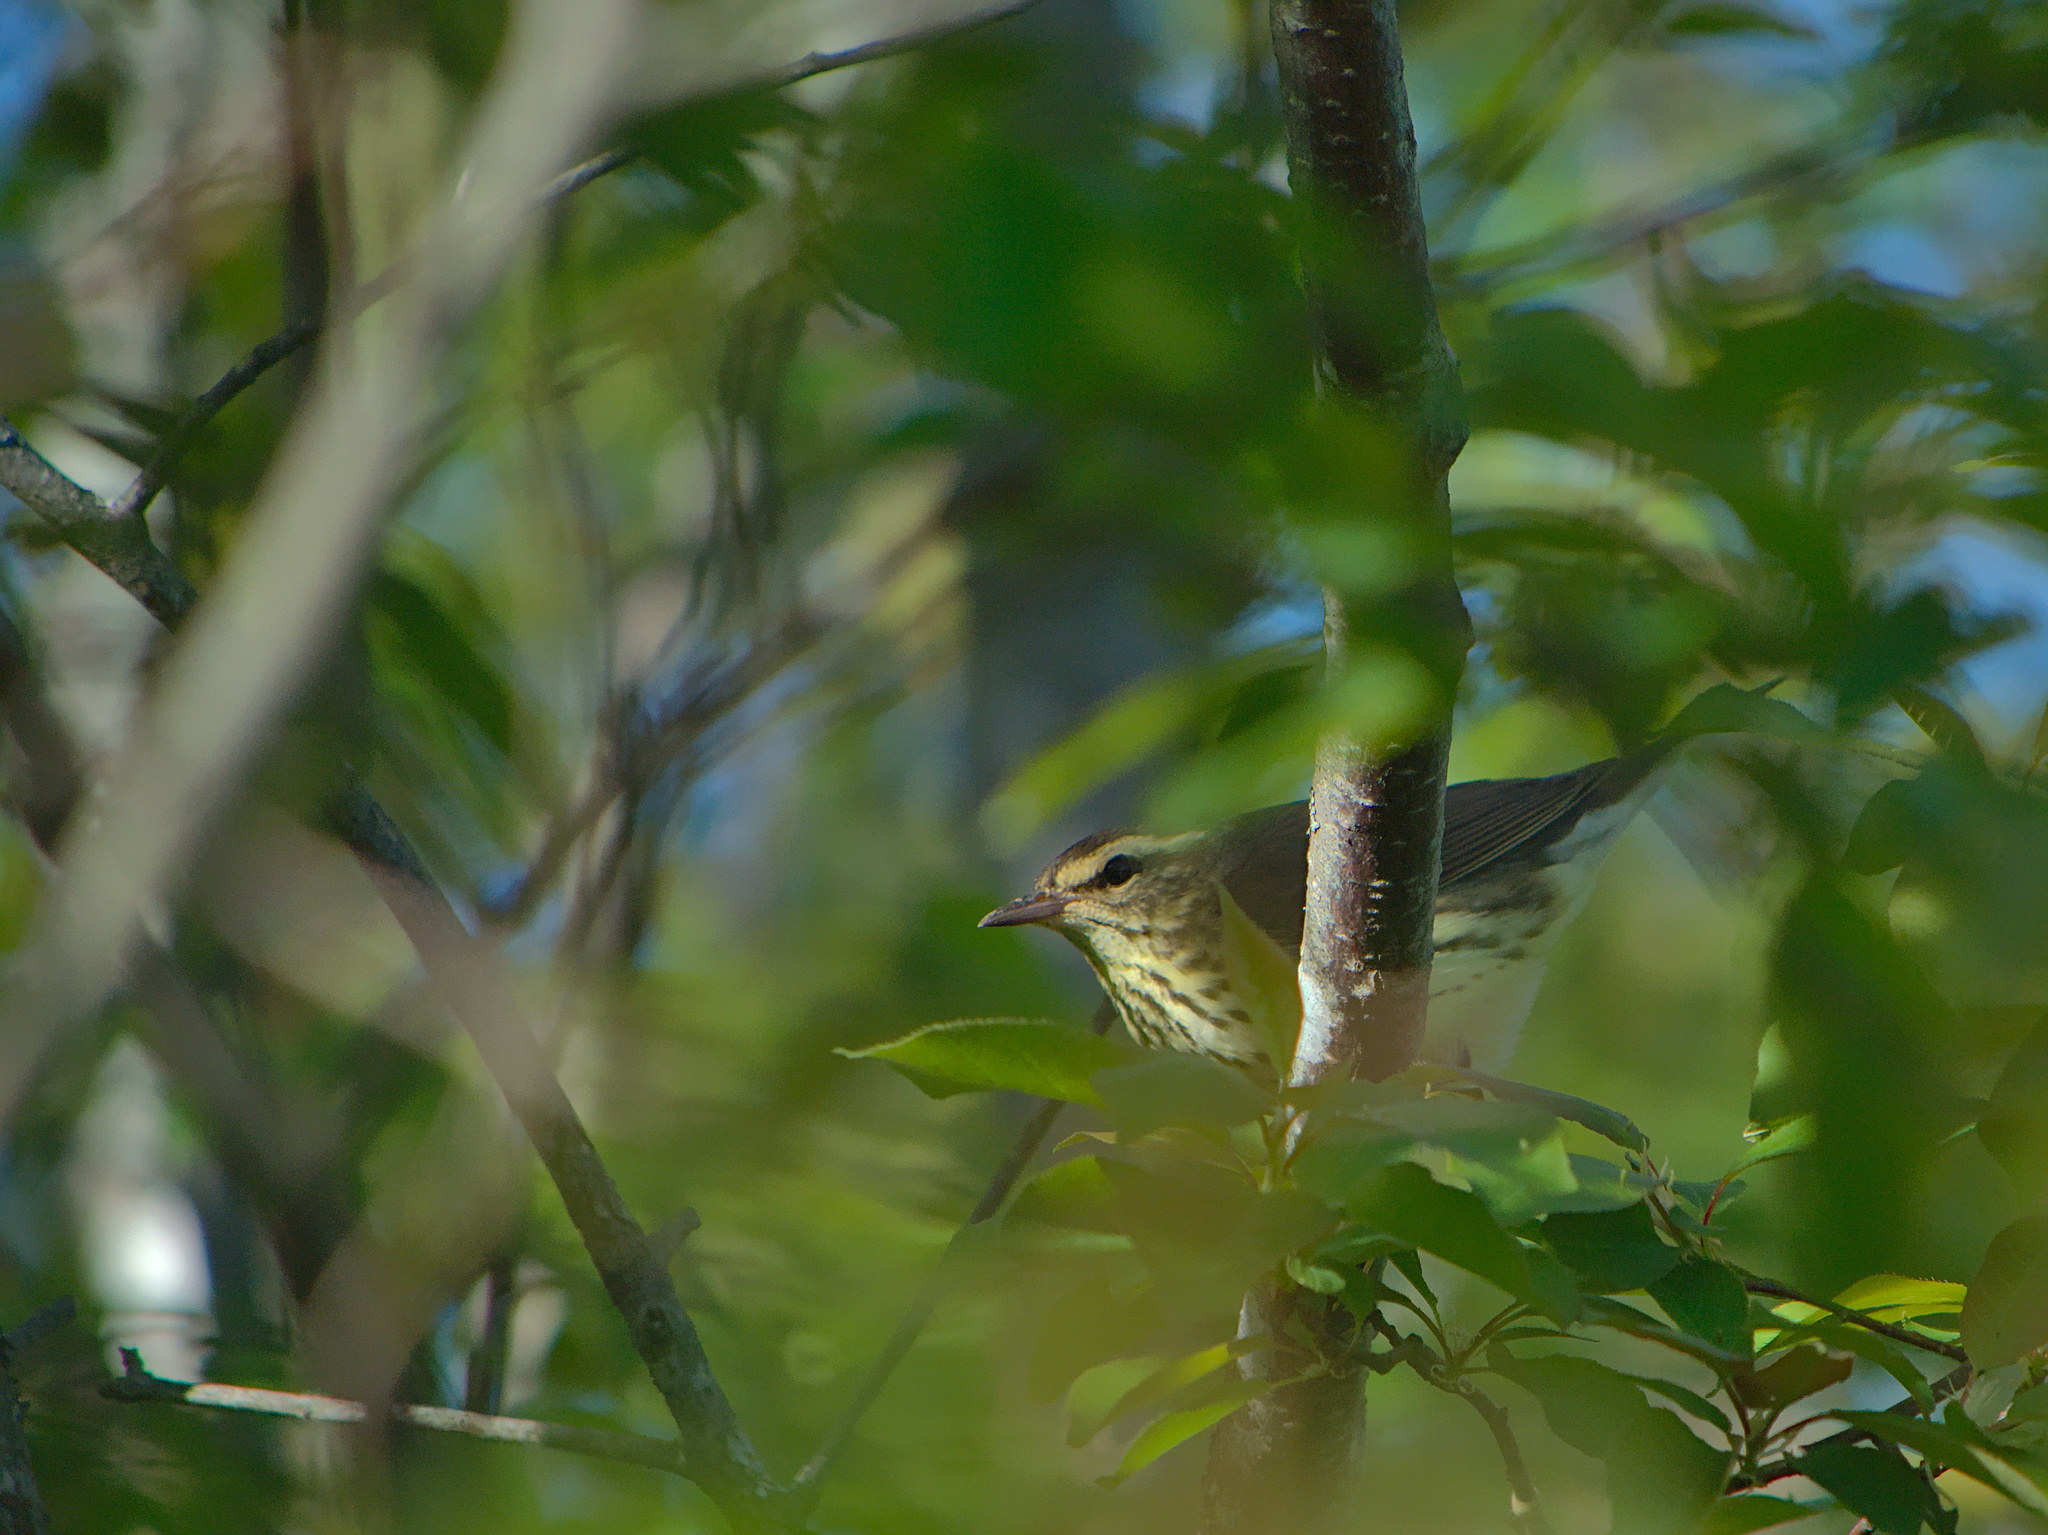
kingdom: Animalia
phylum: Chordata
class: Aves
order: Passeriformes
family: Parulidae
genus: Parkesia
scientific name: Parkesia noveboracensis
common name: Northern waterthrush
